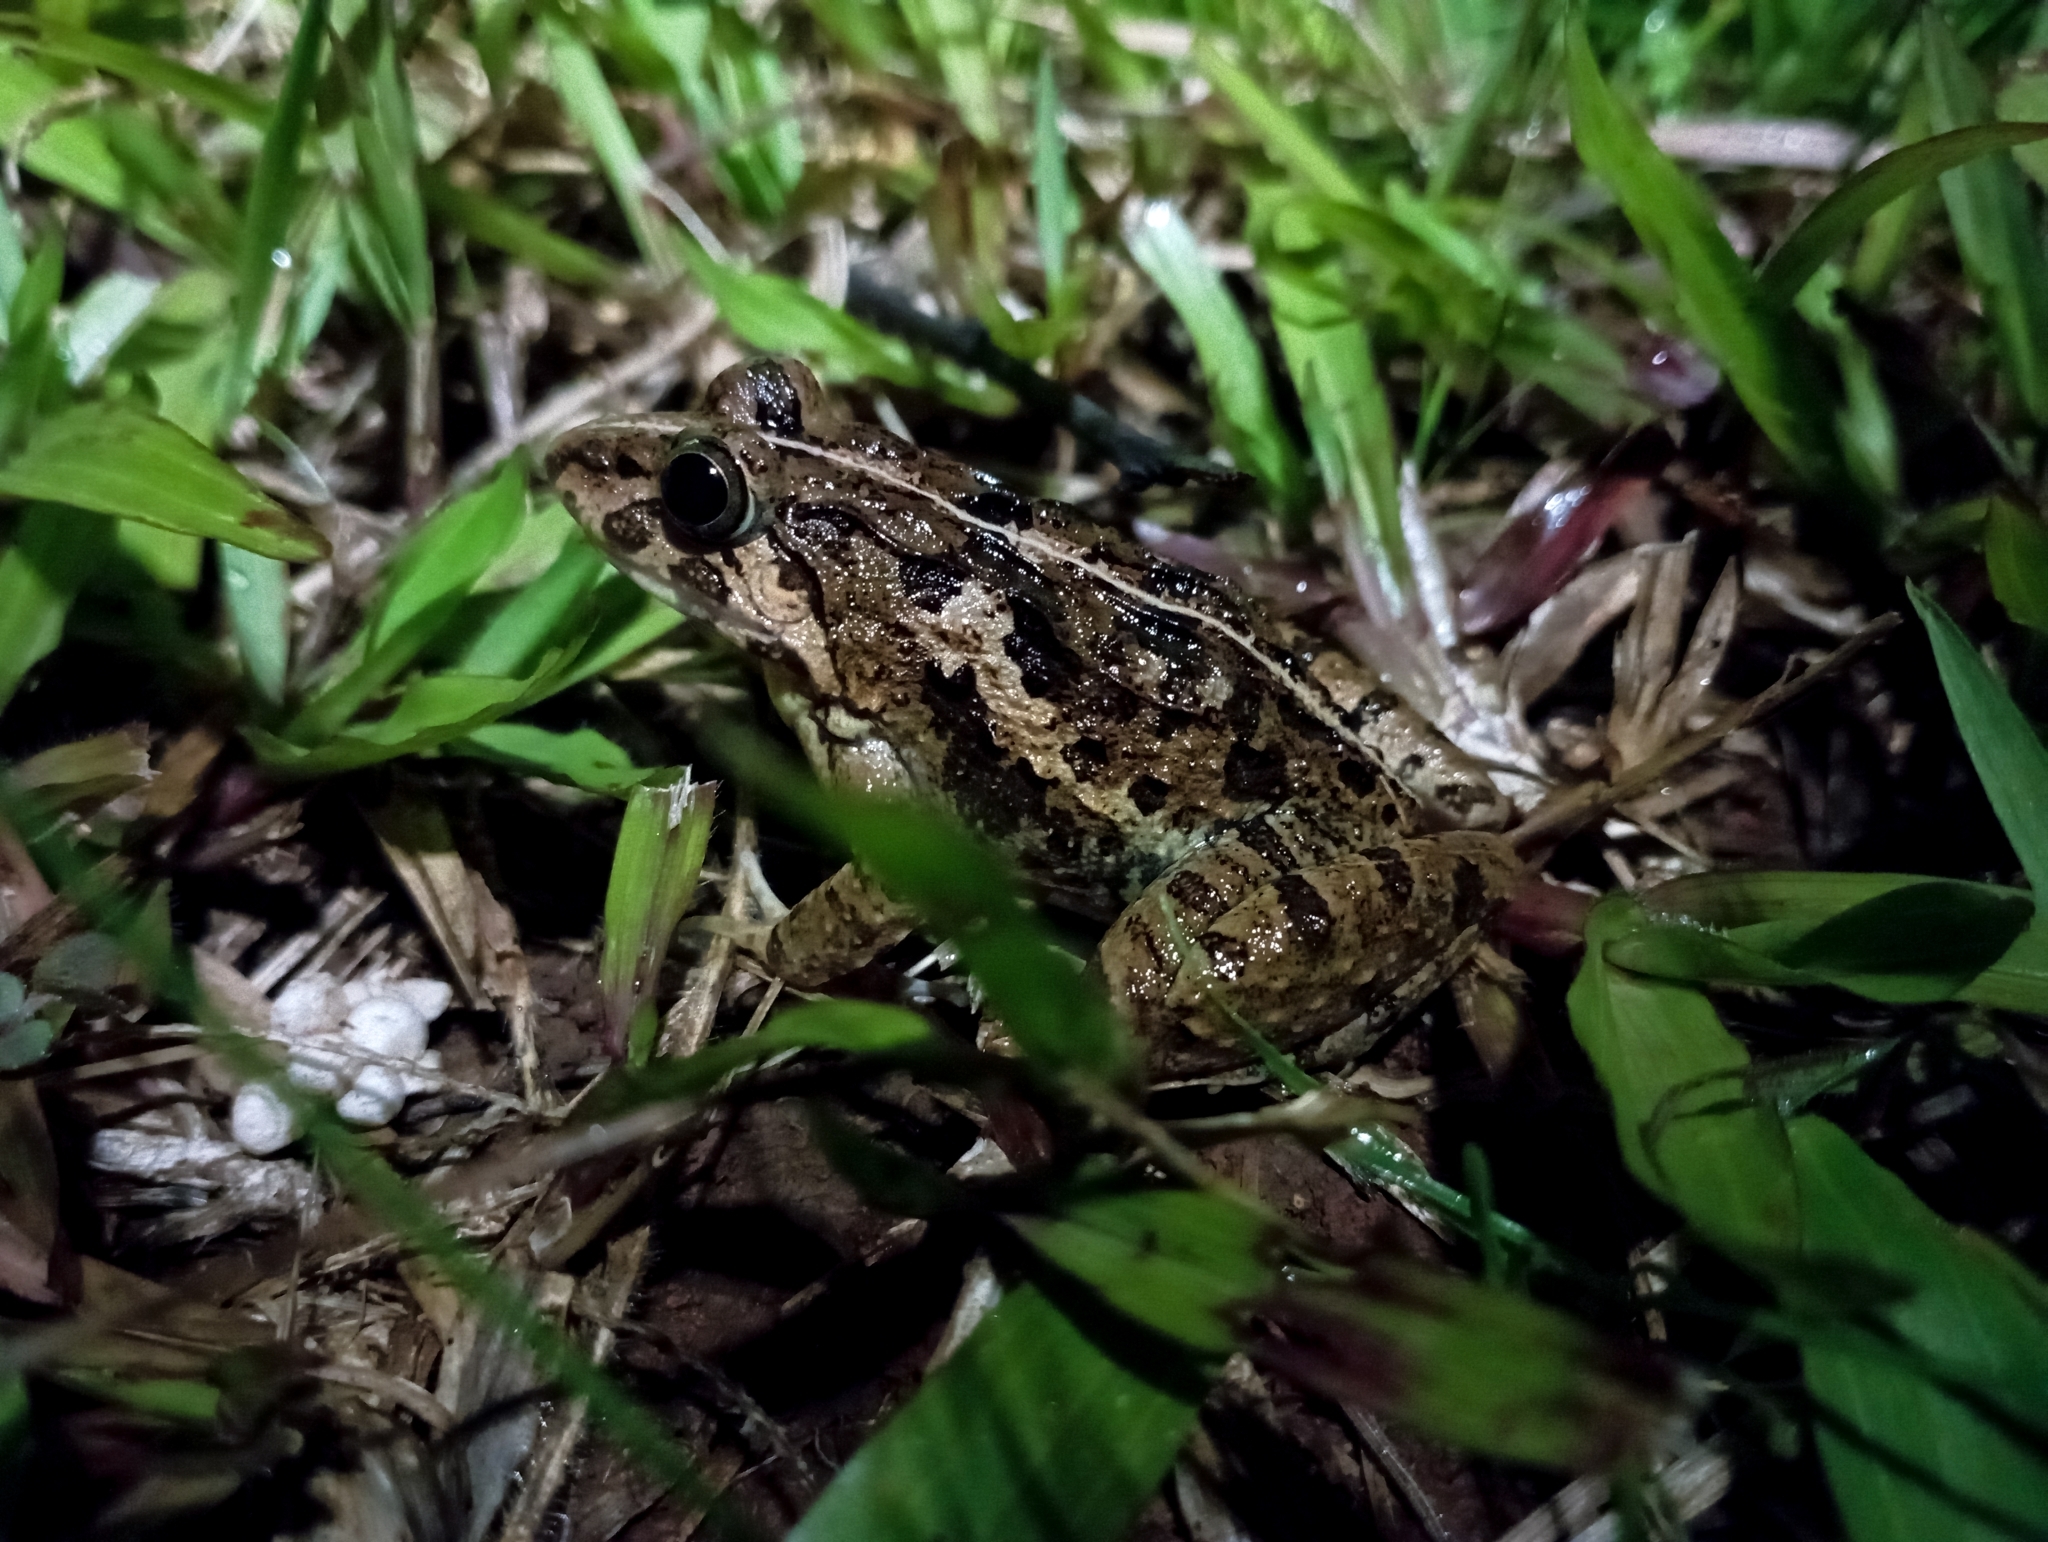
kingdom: Animalia
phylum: Chordata
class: Amphibia
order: Anura
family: Dicroglossidae
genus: Fejervarya
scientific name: Fejervarya limnocharis
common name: Asian grass frog/common pond frog/field frog/grass frog/indian rice frog
